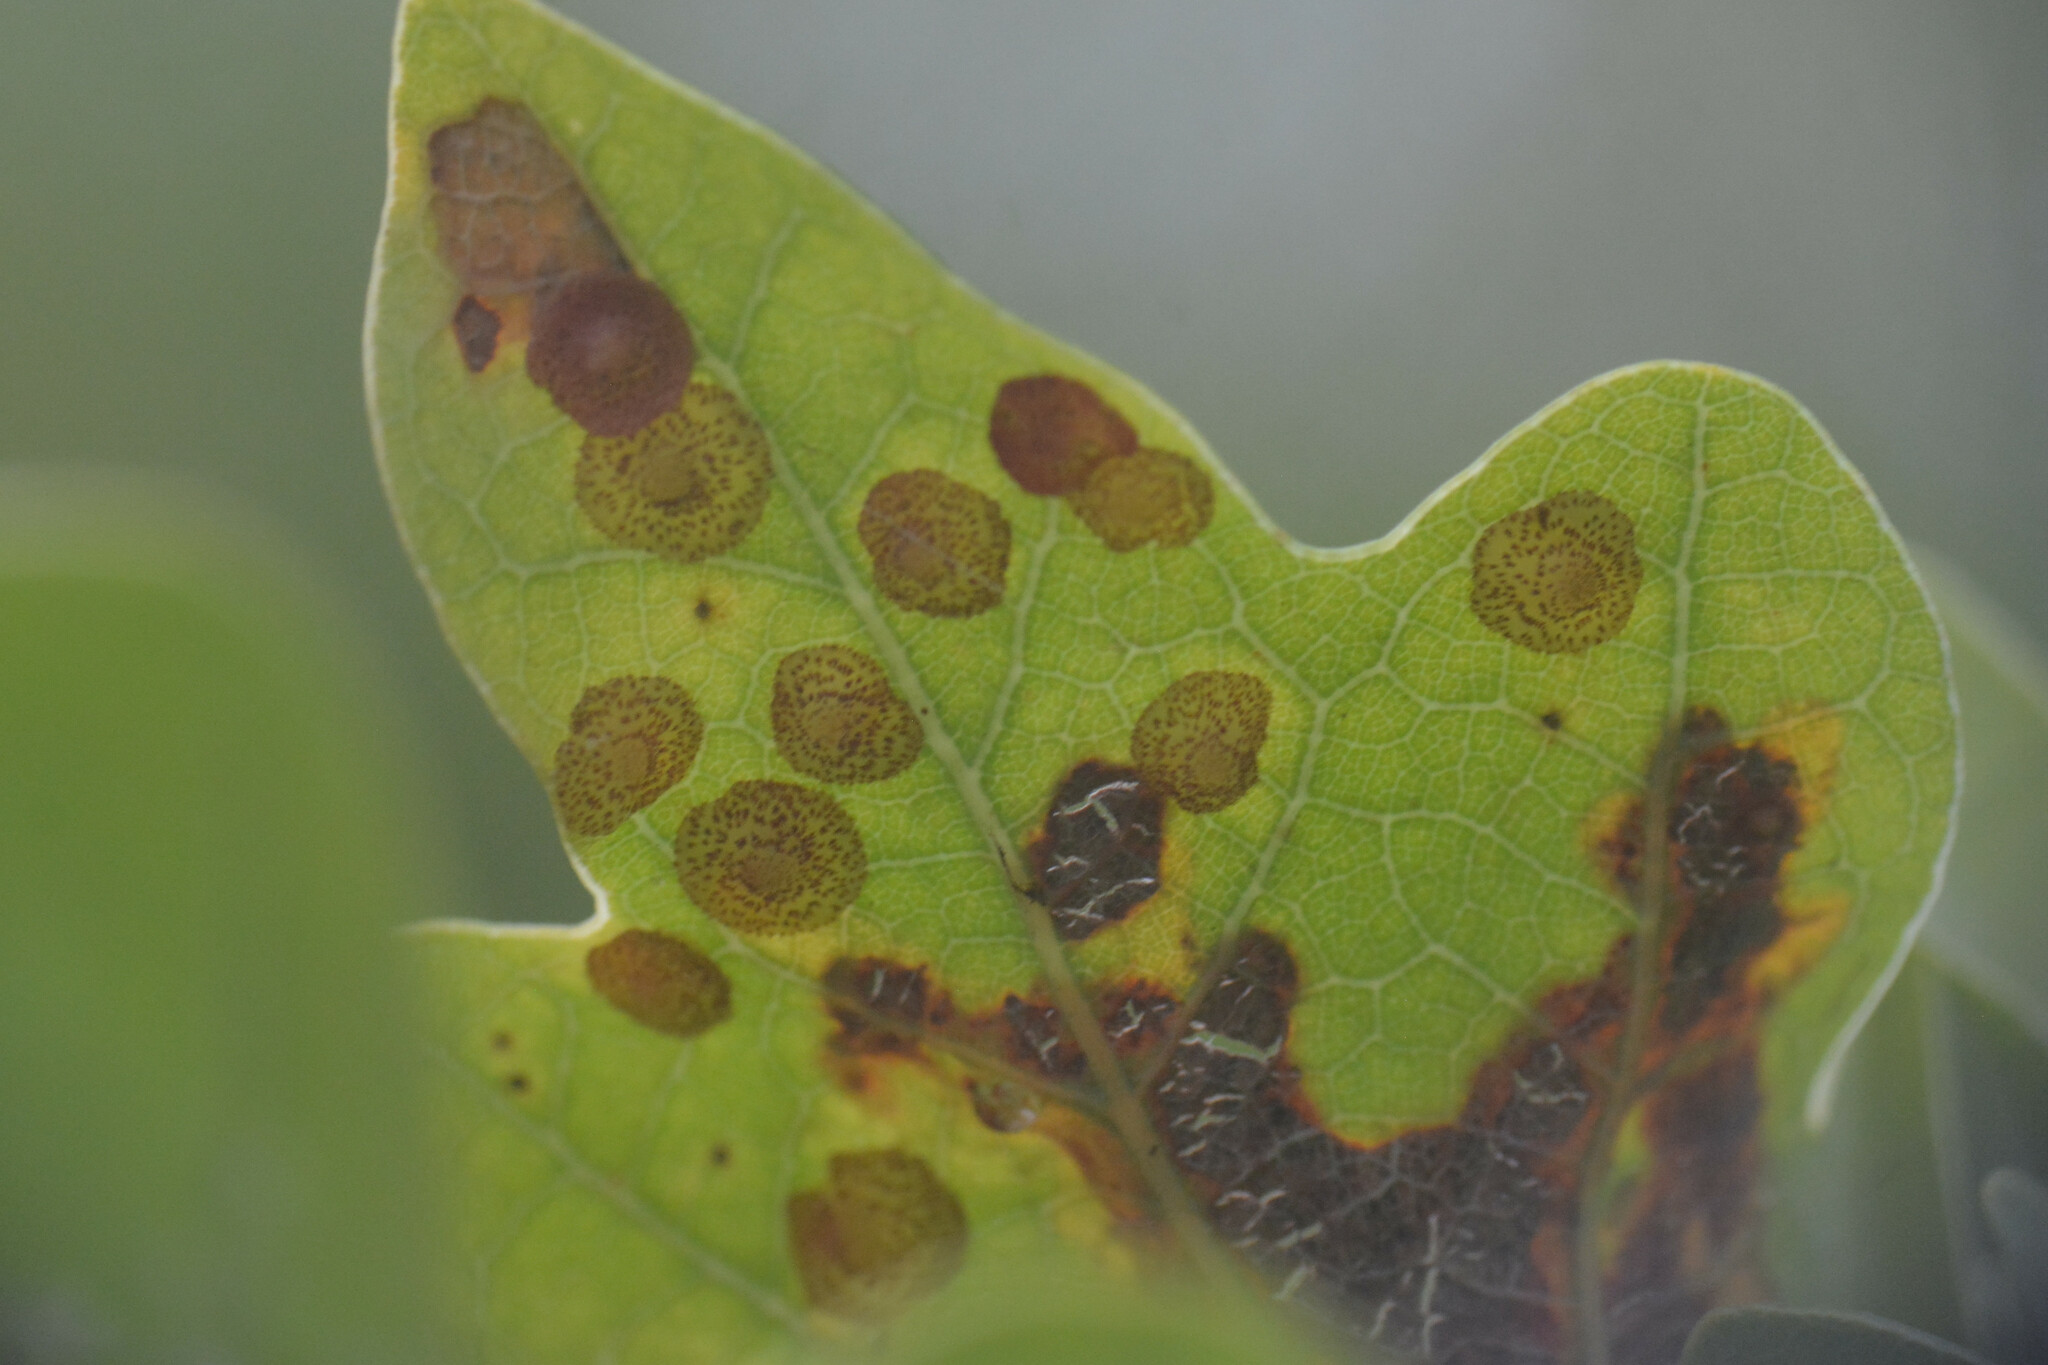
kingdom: Animalia
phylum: Arthropoda
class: Insecta
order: Hymenoptera
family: Cynipidae
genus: Neuroterus
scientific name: Neuroterus quercusbaccarum
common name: Common spangle gall
